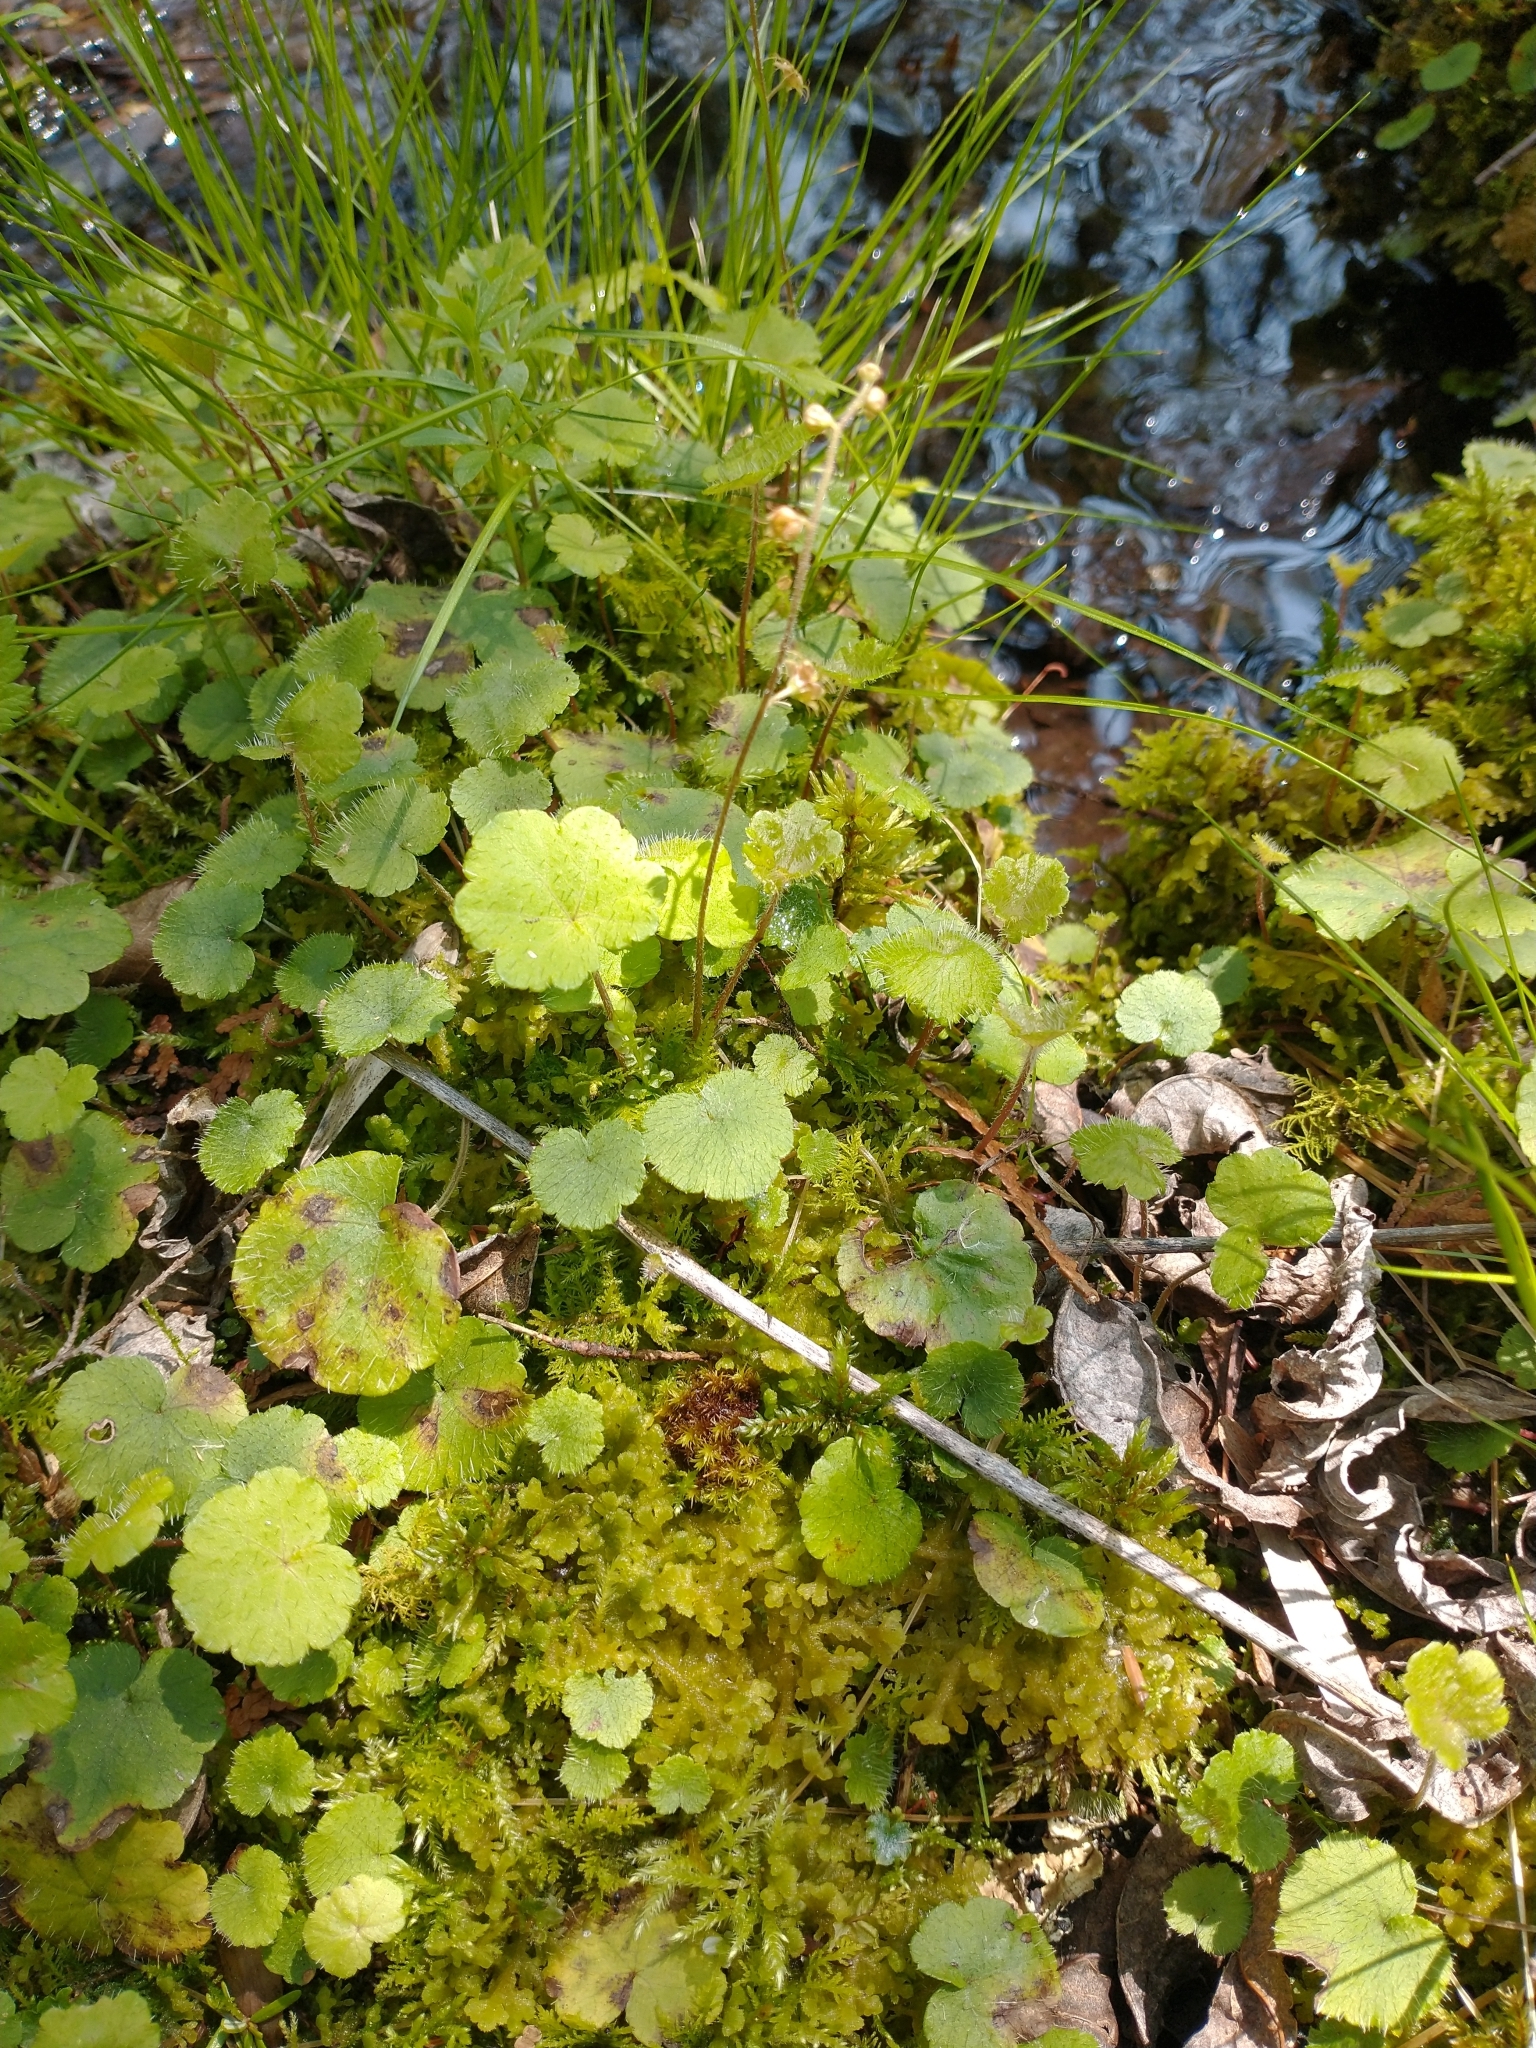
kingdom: Plantae
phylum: Tracheophyta
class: Magnoliopsida
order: Saxifragales
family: Saxifragaceae
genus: Mitella
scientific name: Mitella nuda
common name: Bare-stemmed bishop's-cap
